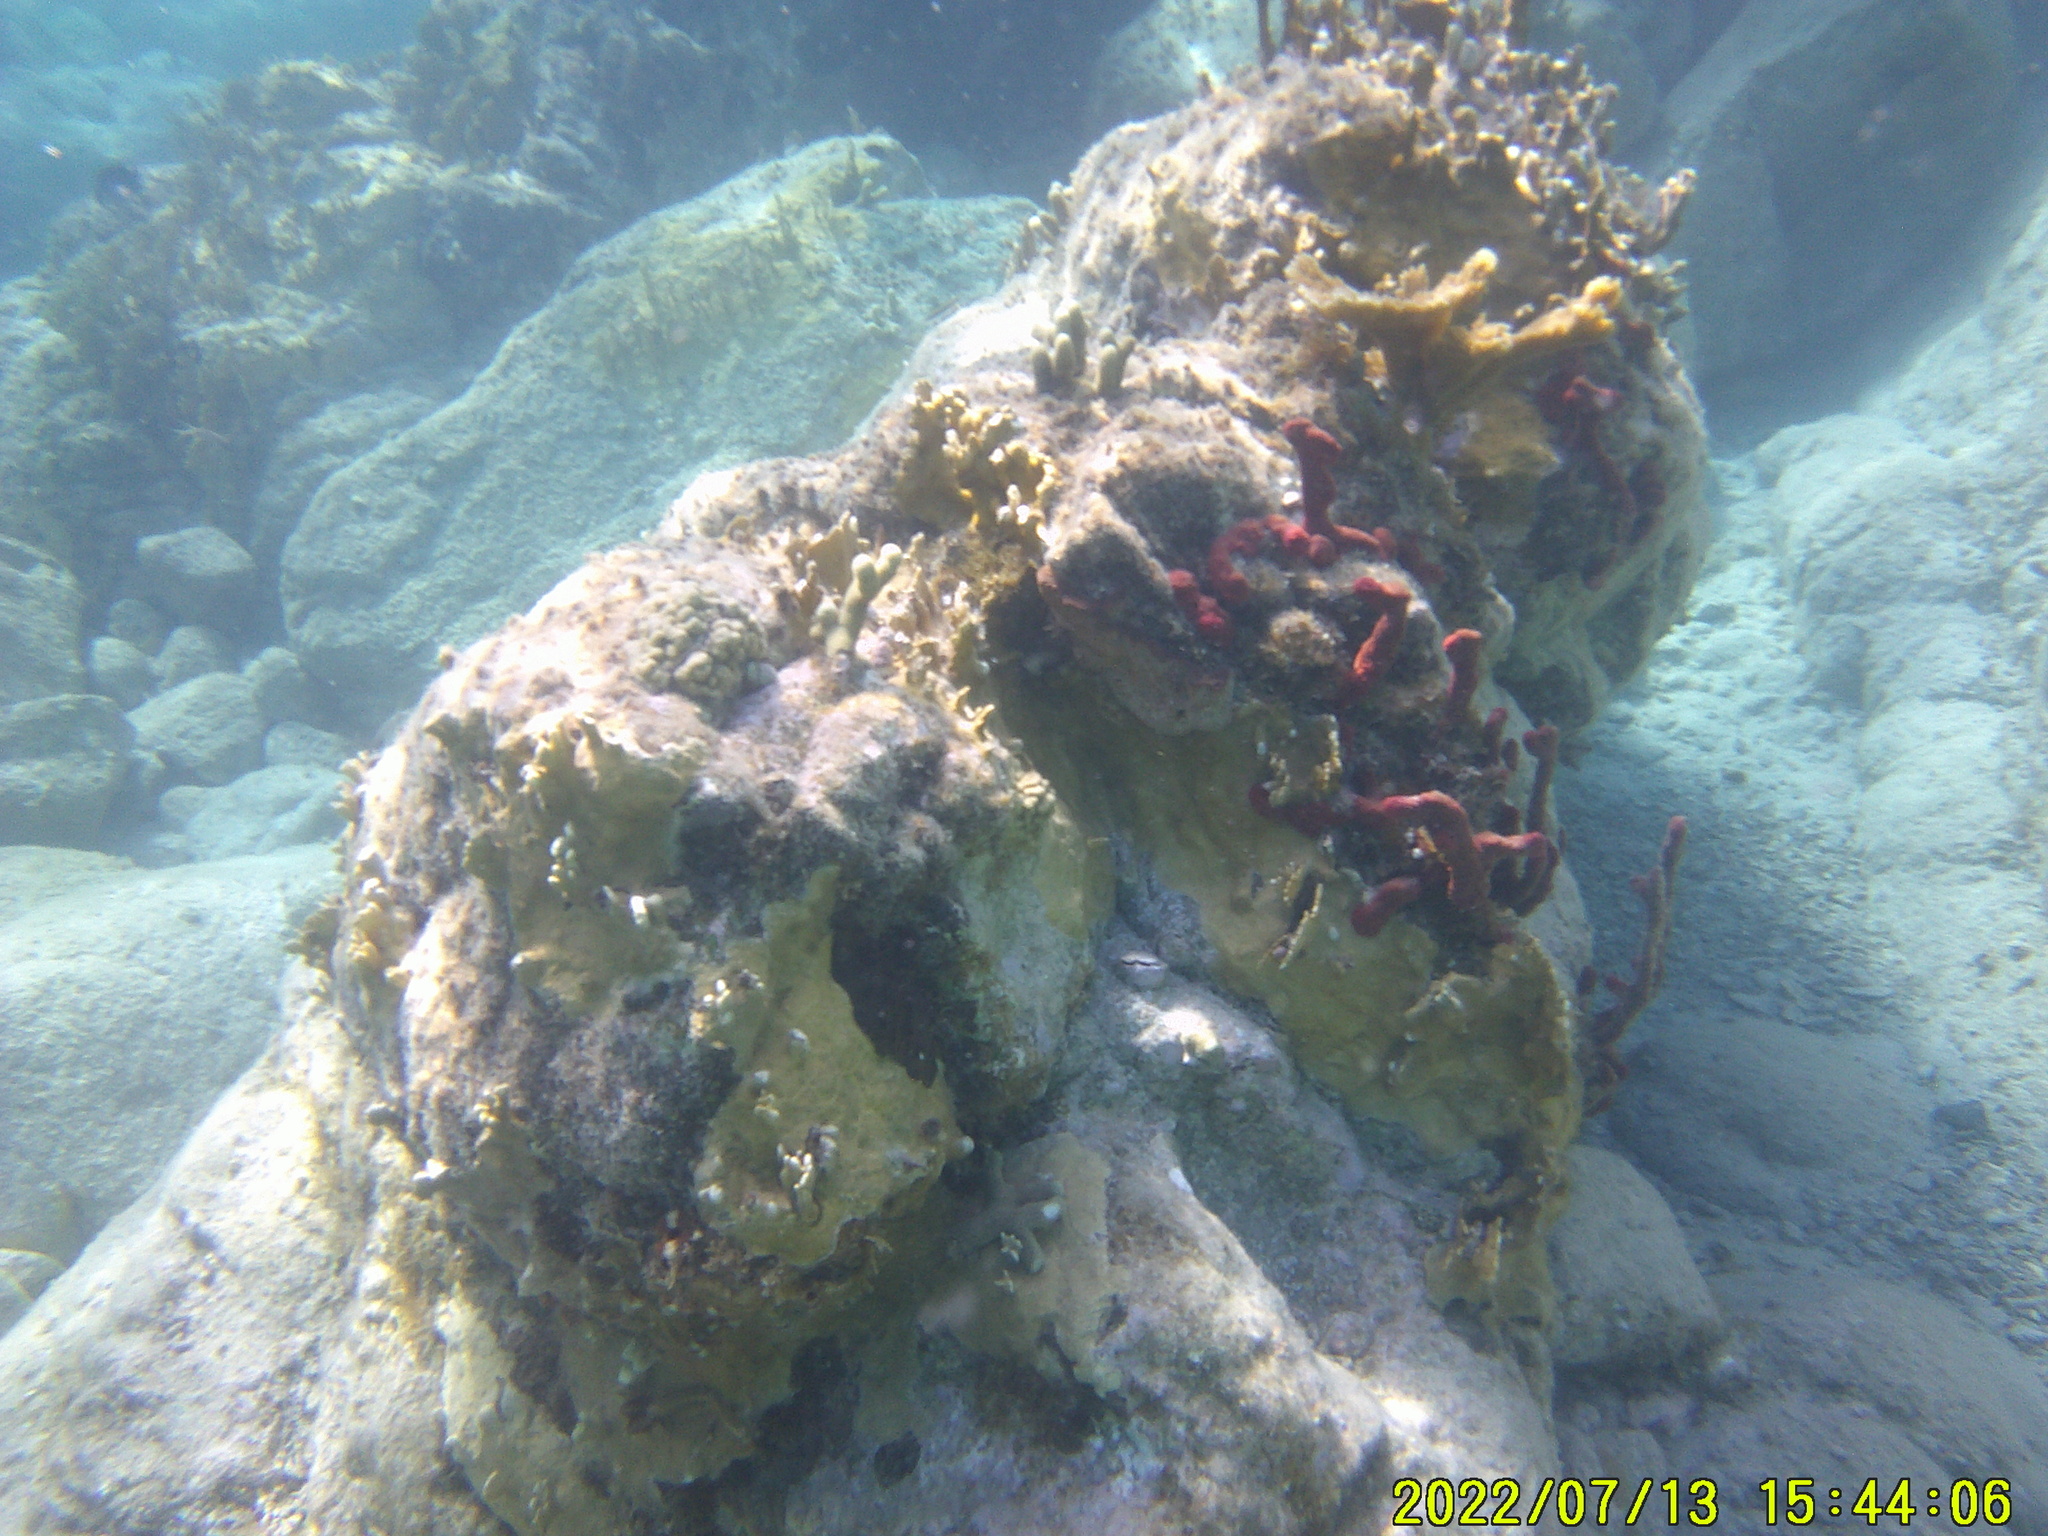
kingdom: Animalia
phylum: Porifera
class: Demospongiae
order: Haplosclerida
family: Niphatidae
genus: Amphimedon
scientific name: Amphimedon compressa
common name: Red sponge
